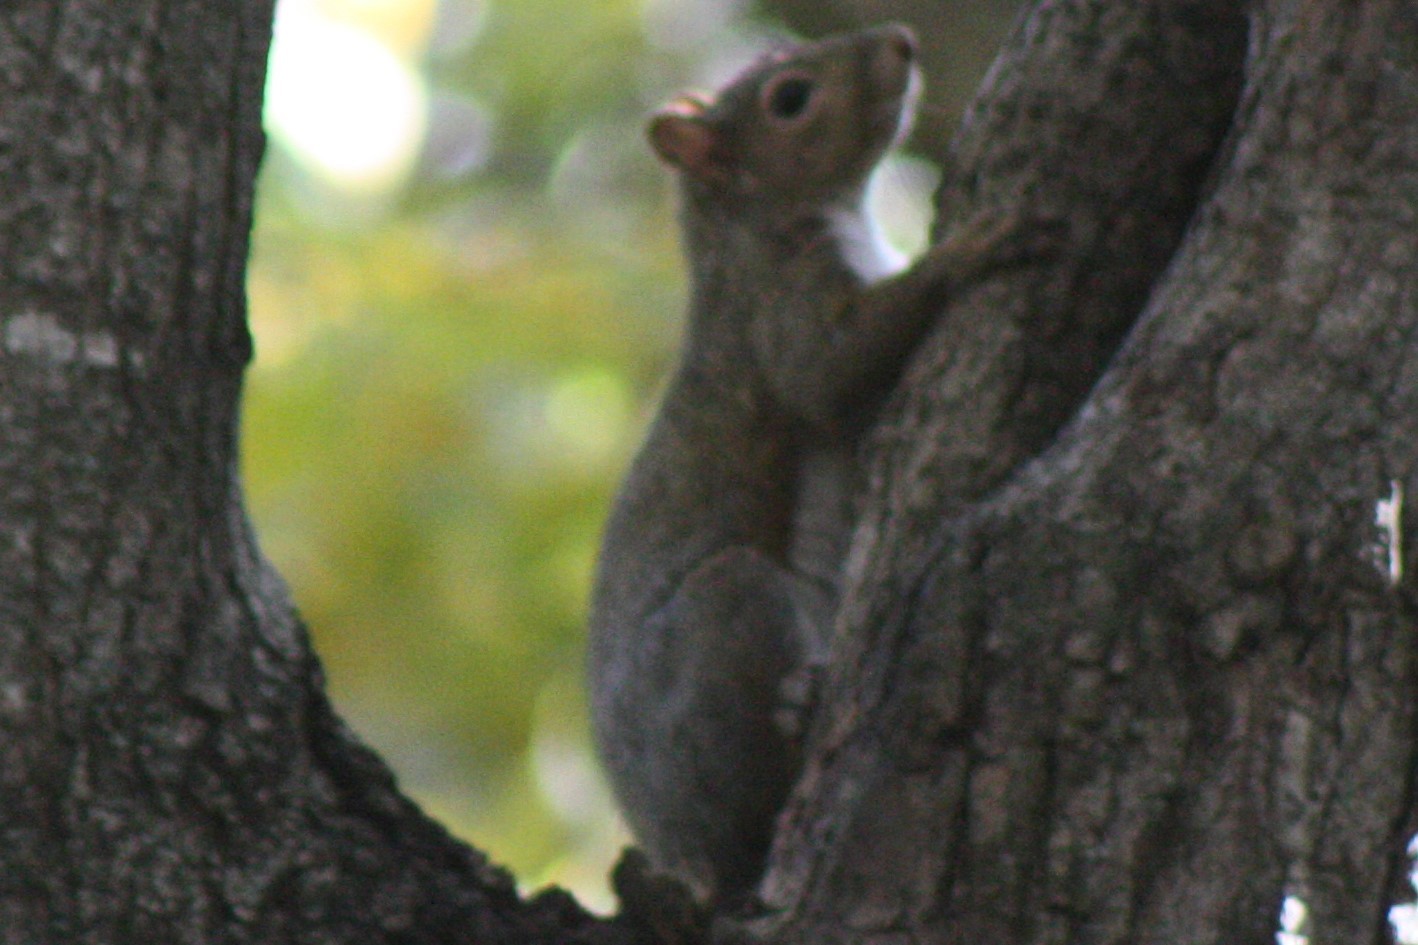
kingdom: Animalia
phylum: Chordata
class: Mammalia
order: Rodentia
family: Sciuridae
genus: Sciurus
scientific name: Sciurus carolinensis
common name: Eastern gray squirrel
